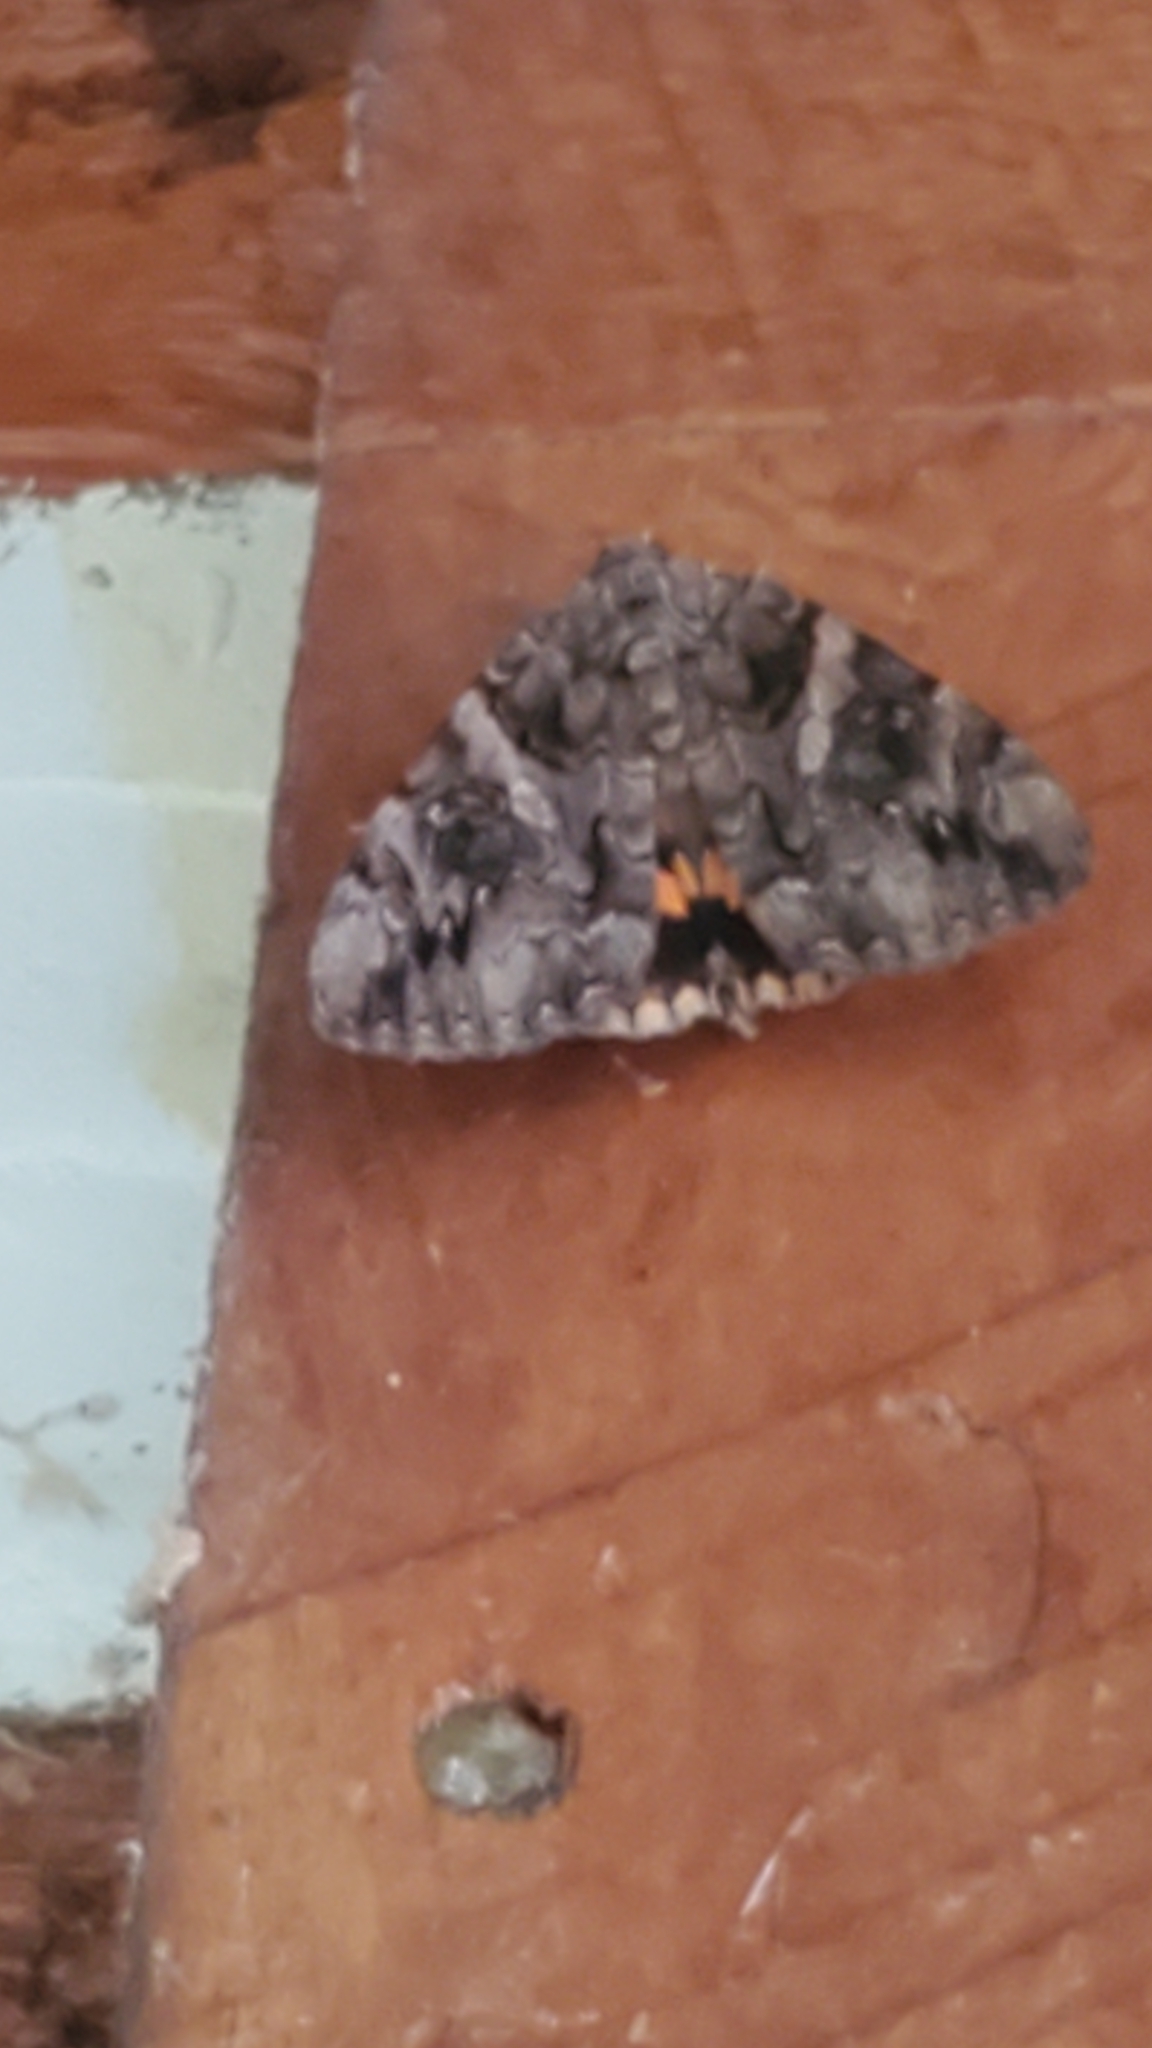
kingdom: Animalia
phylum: Arthropoda
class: Insecta
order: Lepidoptera
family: Erebidae
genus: Catocala
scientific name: Catocala piatrix
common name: The penitent underwing
